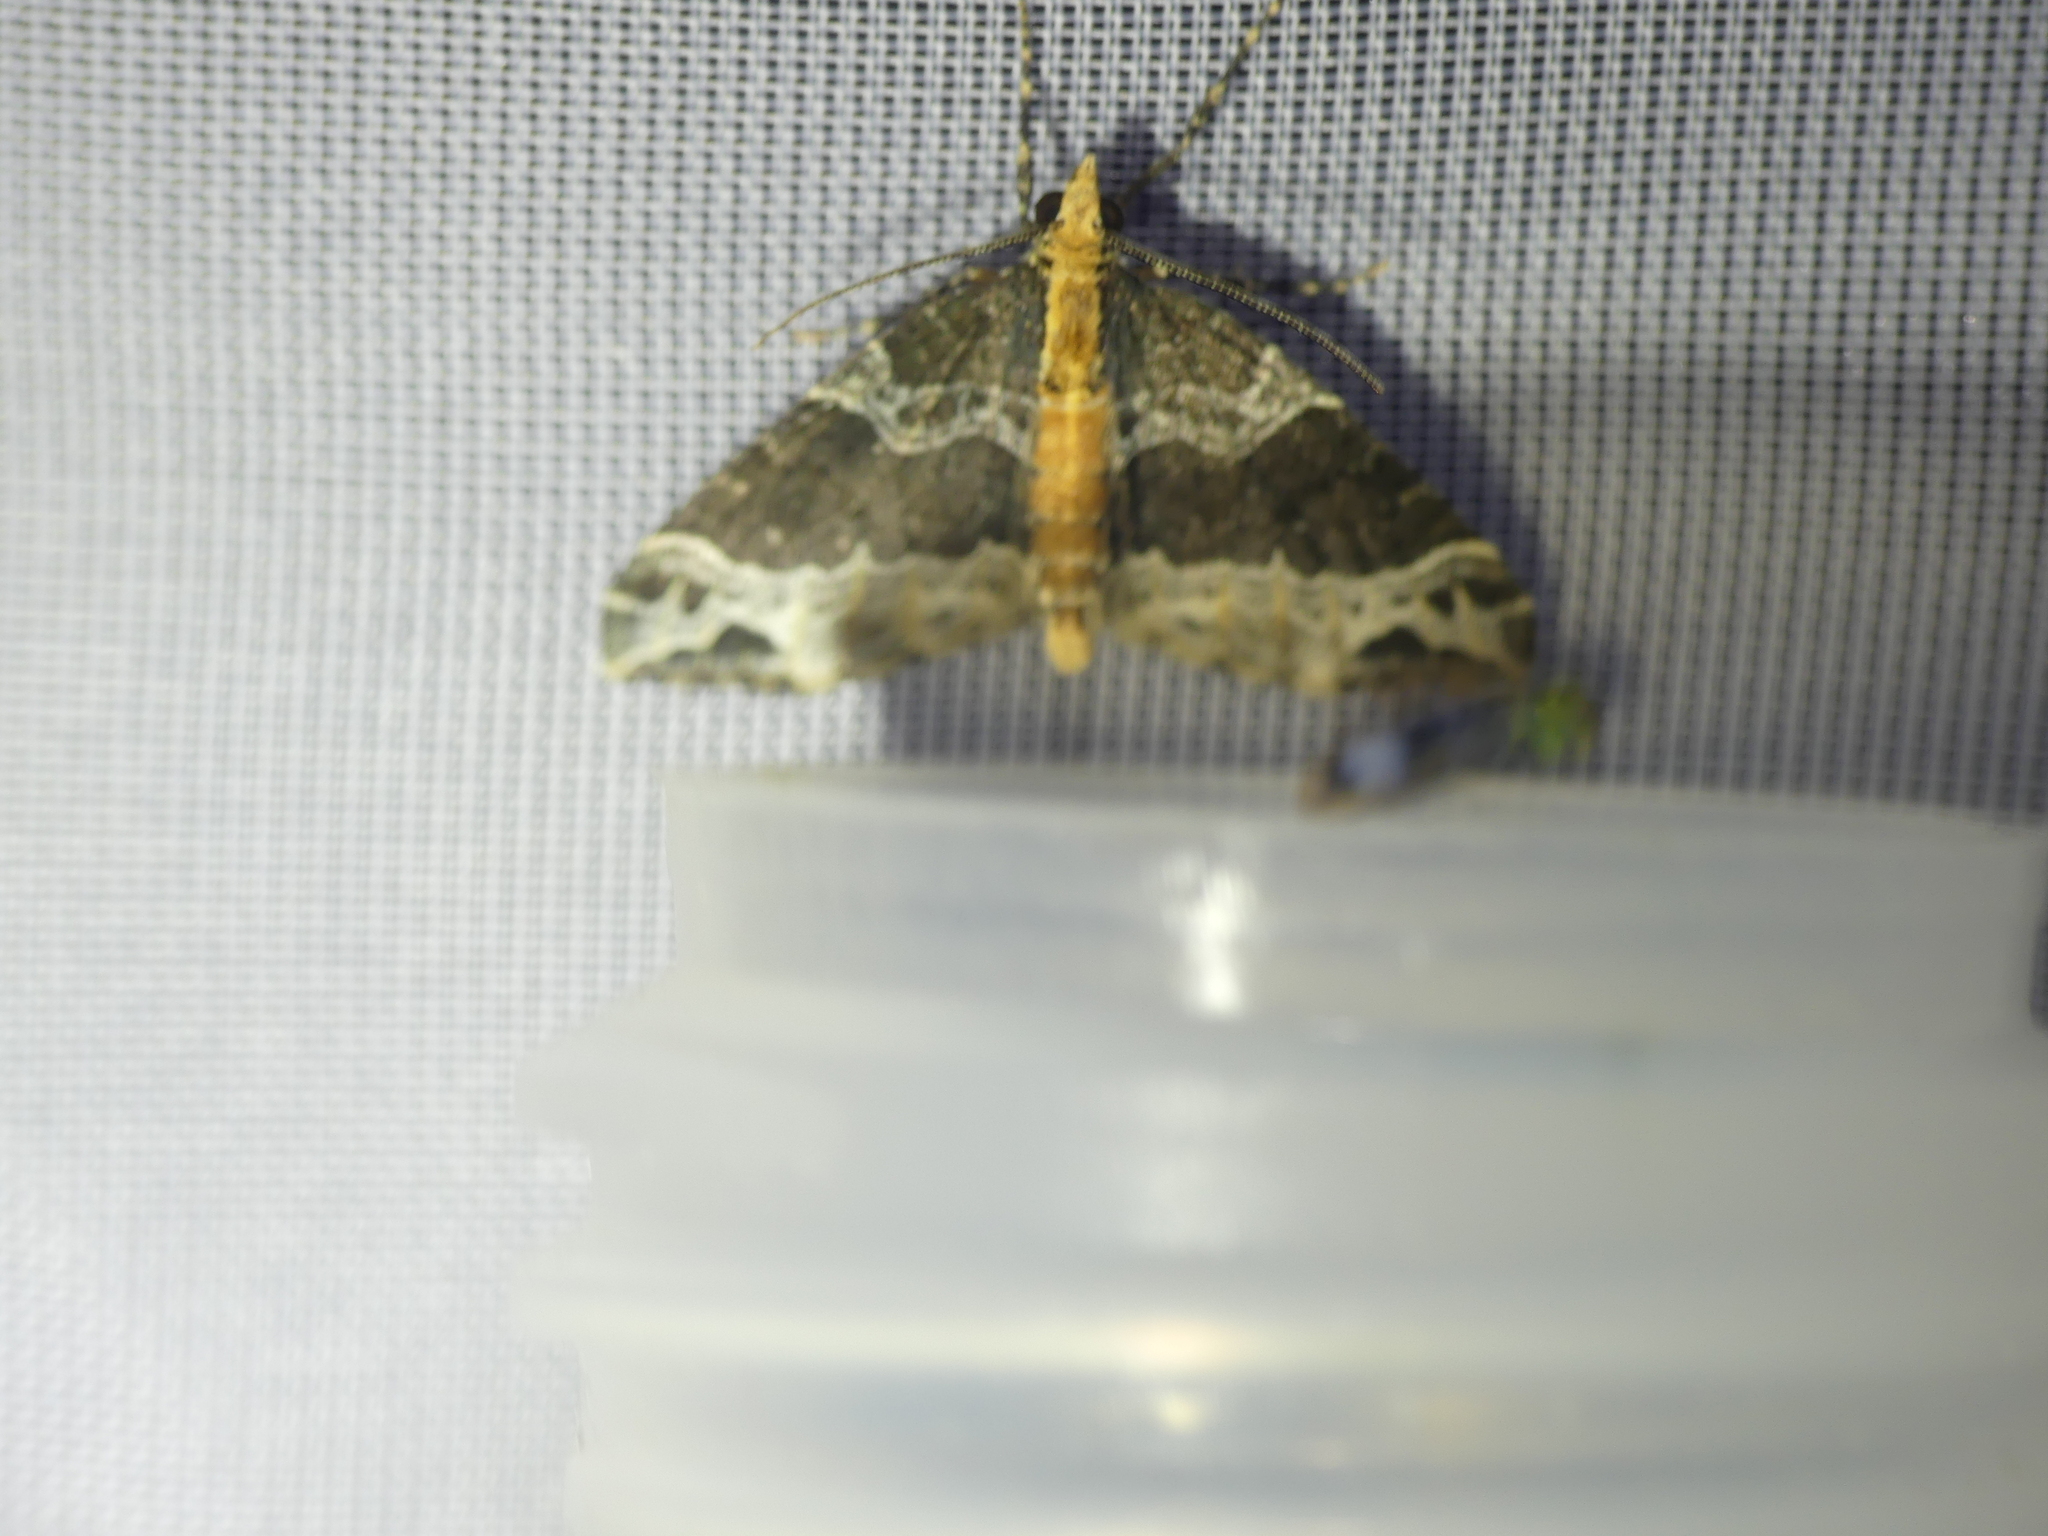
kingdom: Animalia
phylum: Arthropoda
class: Insecta
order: Lepidoptera
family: Geometridae
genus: Ecliptopera
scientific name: Ecliptopera capitata
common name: Yellow-headed phoenix
